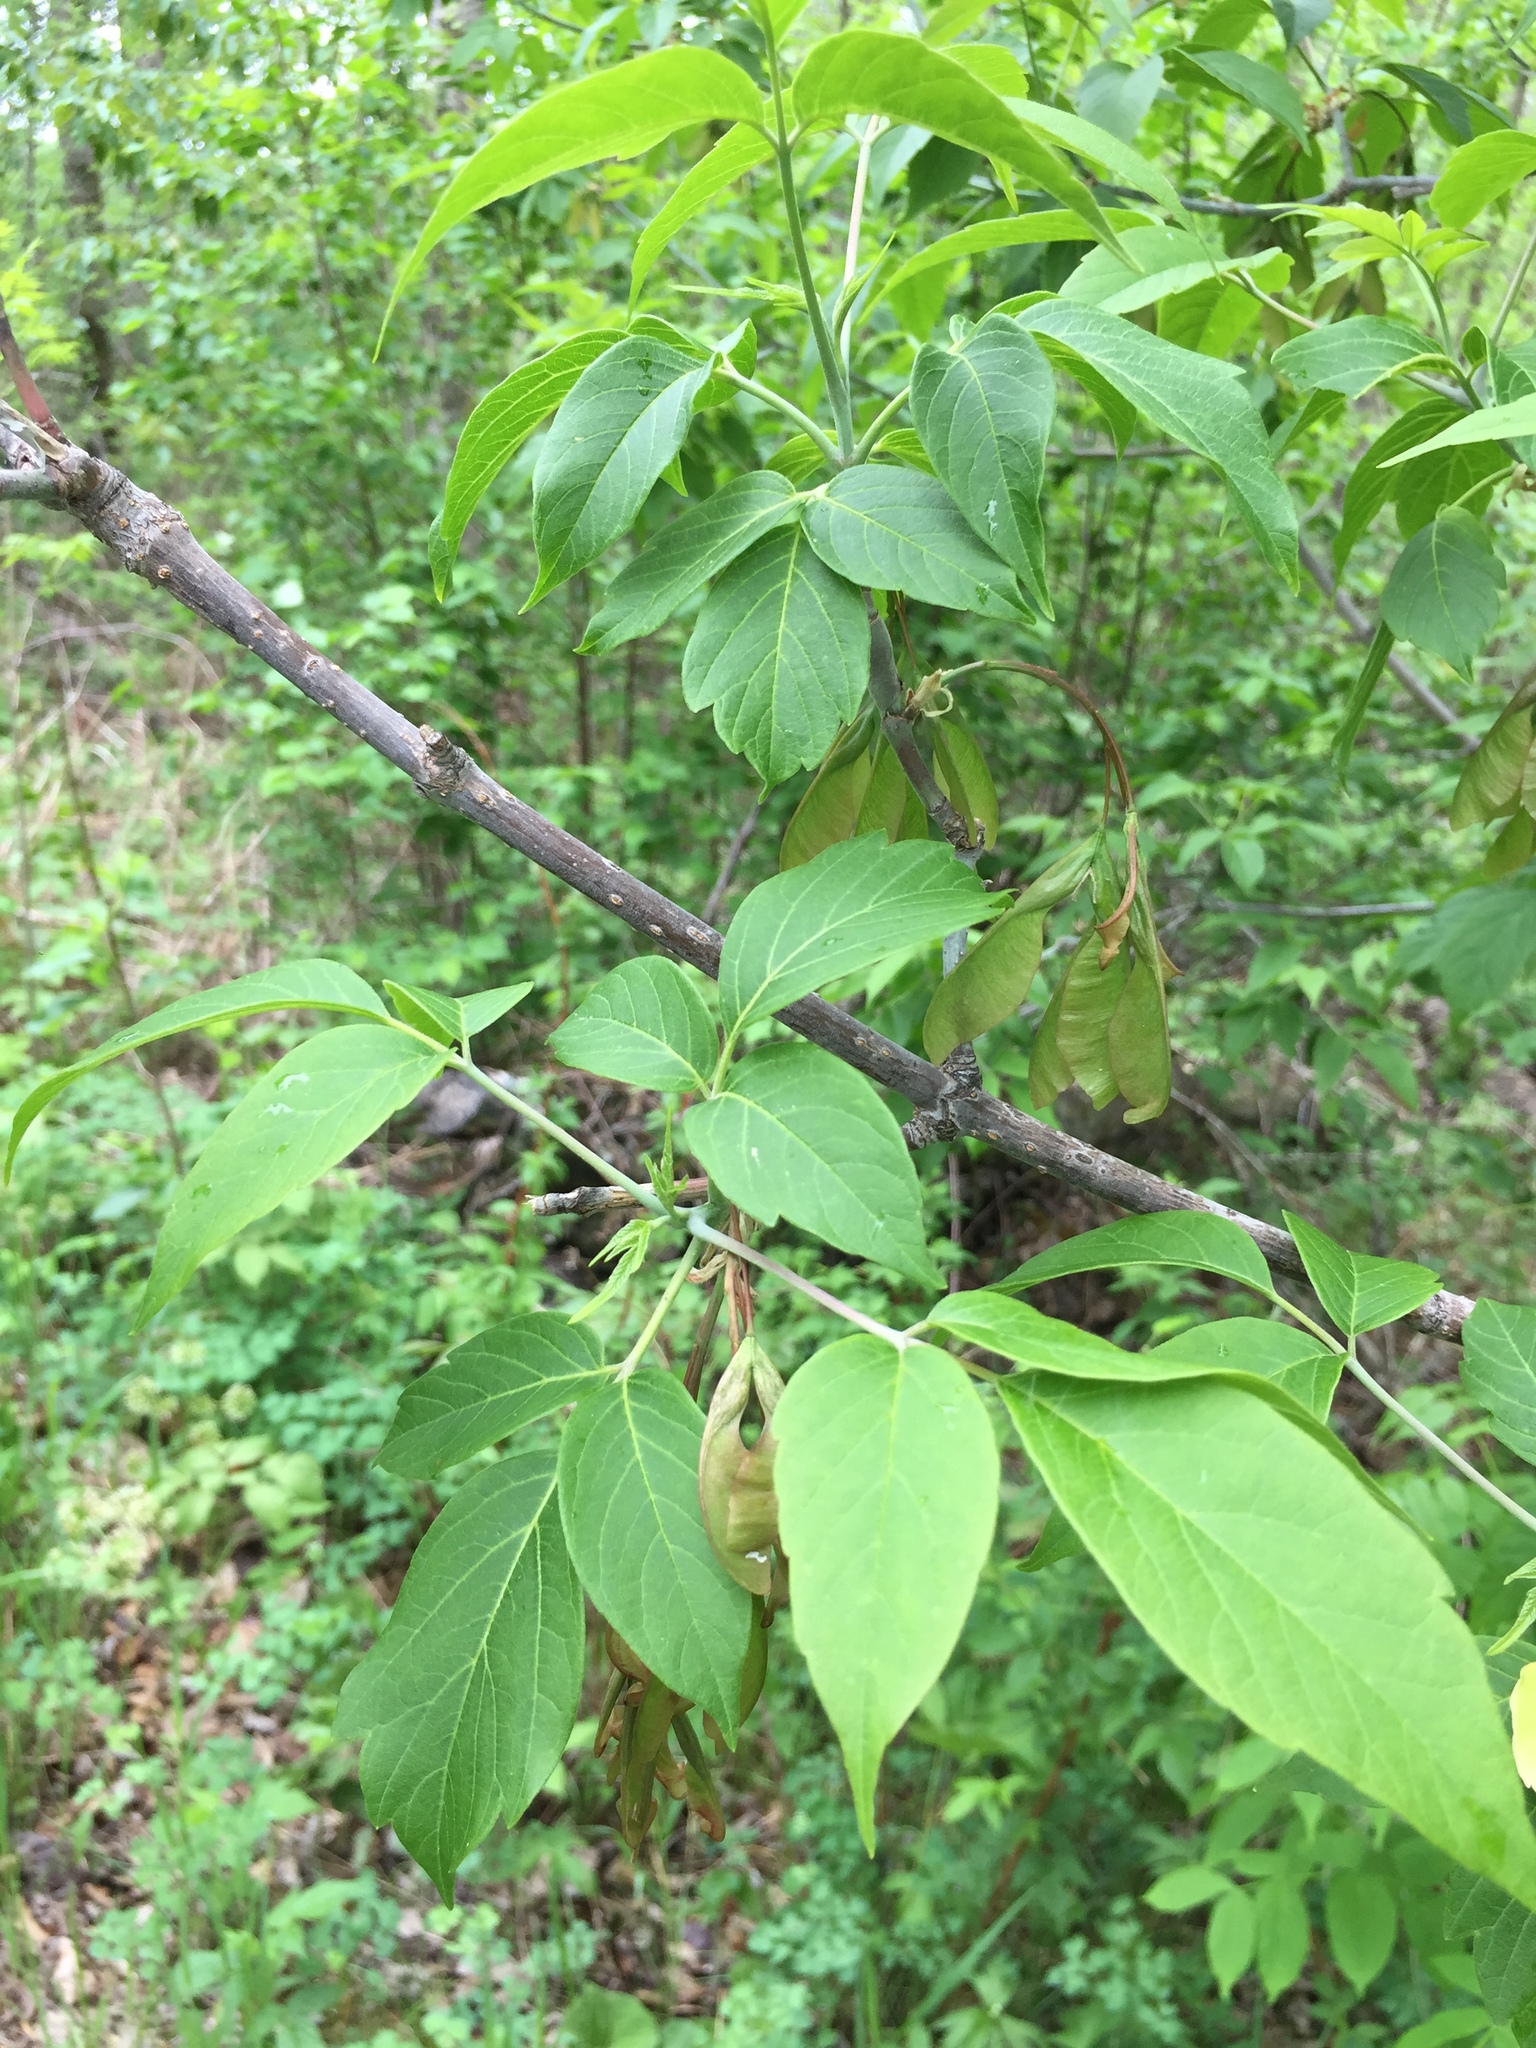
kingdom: Plantae
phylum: Tracheophyta
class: Magnoliopsida
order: Sapindales
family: Sapindaceae
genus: Acer
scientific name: Acer negundo
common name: Ashleaf maple
